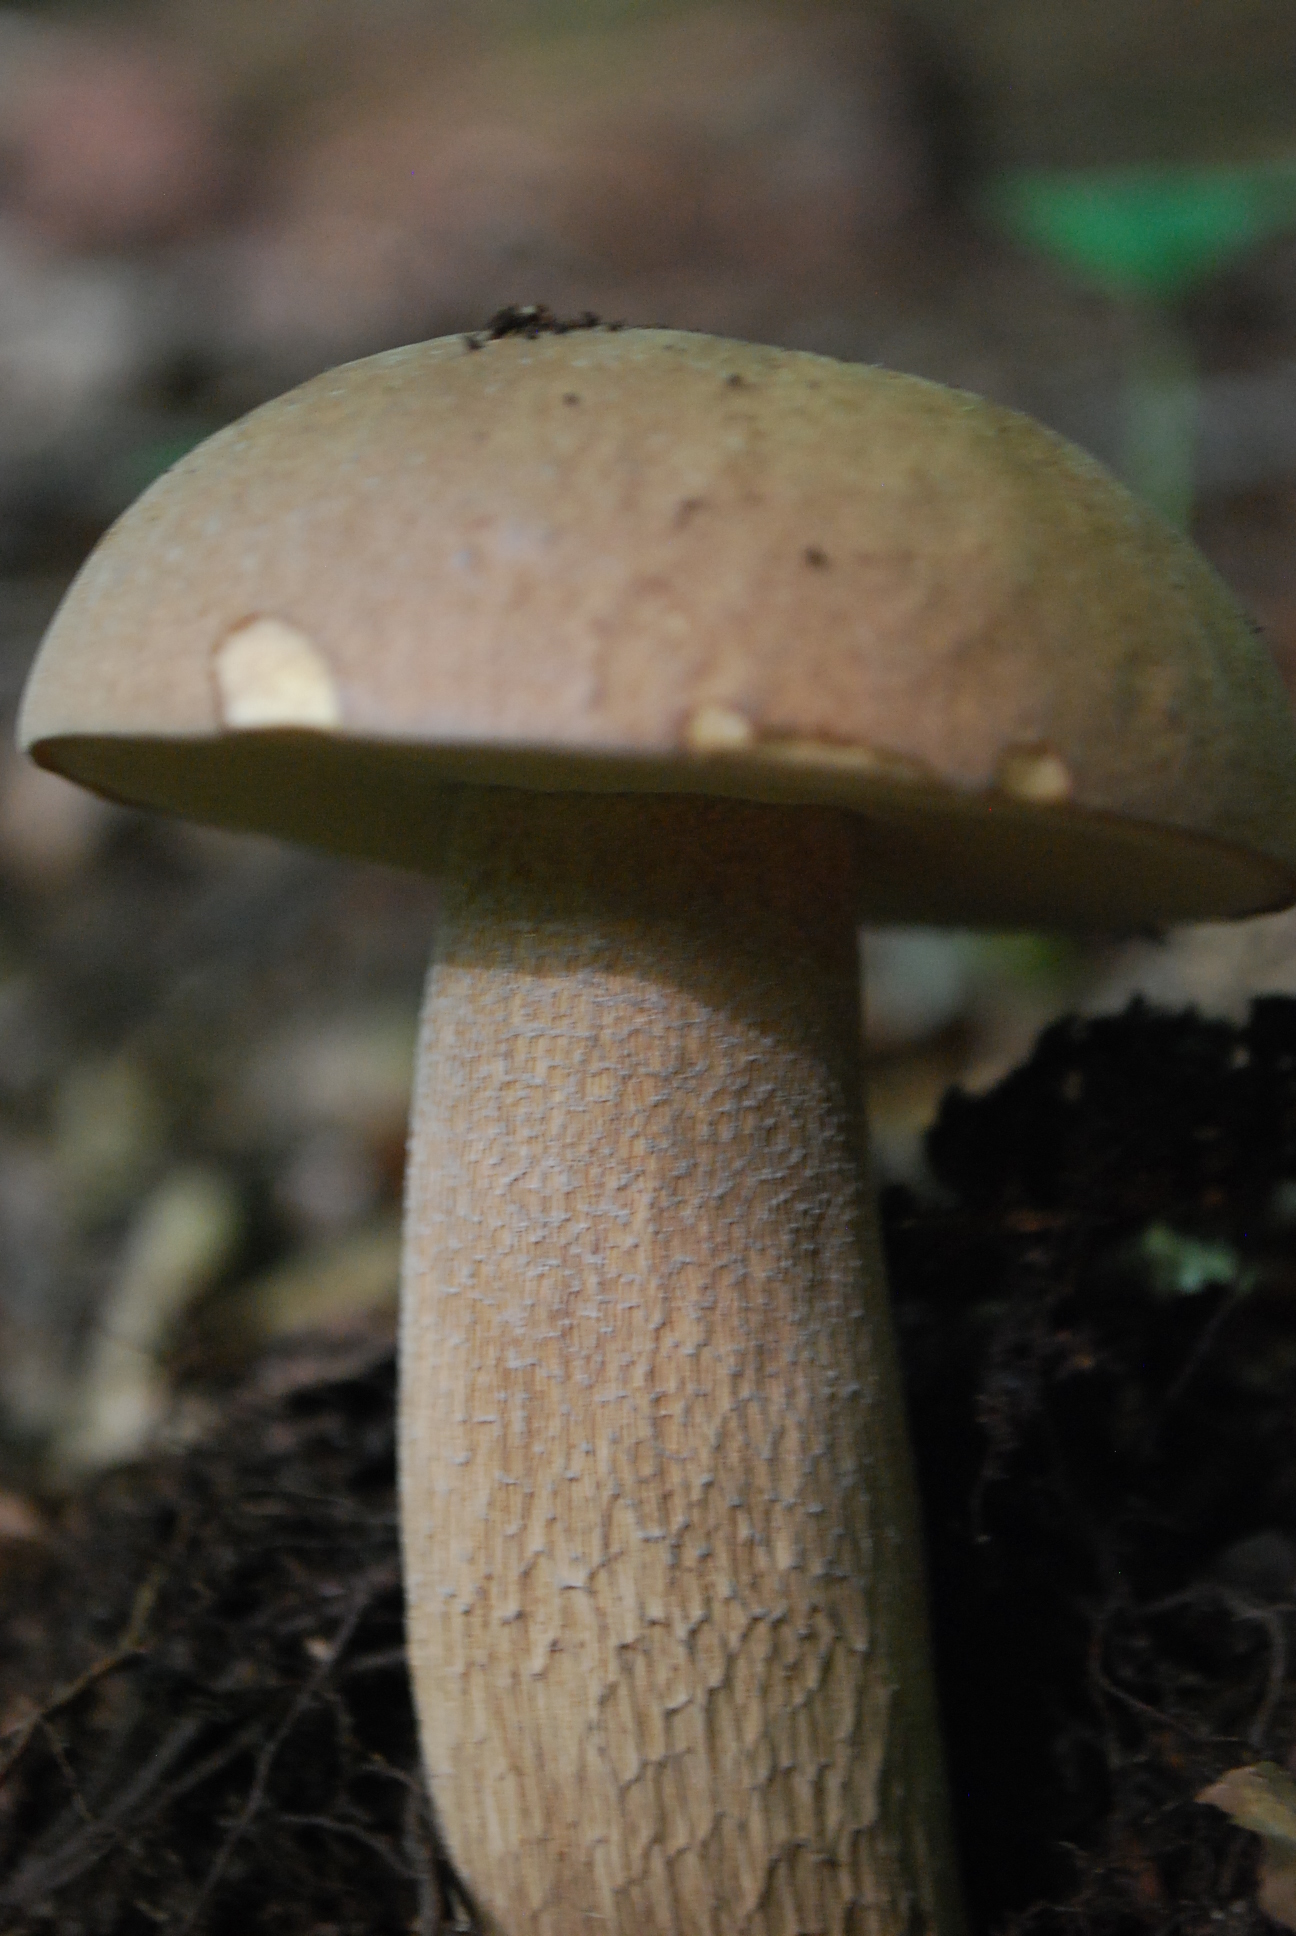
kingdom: Fungi
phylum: Basidiomycota
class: Agaricomycetes
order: Boletales
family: Boletaceae
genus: Boletus
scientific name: Boletus reticulatus
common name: Summer bolete
